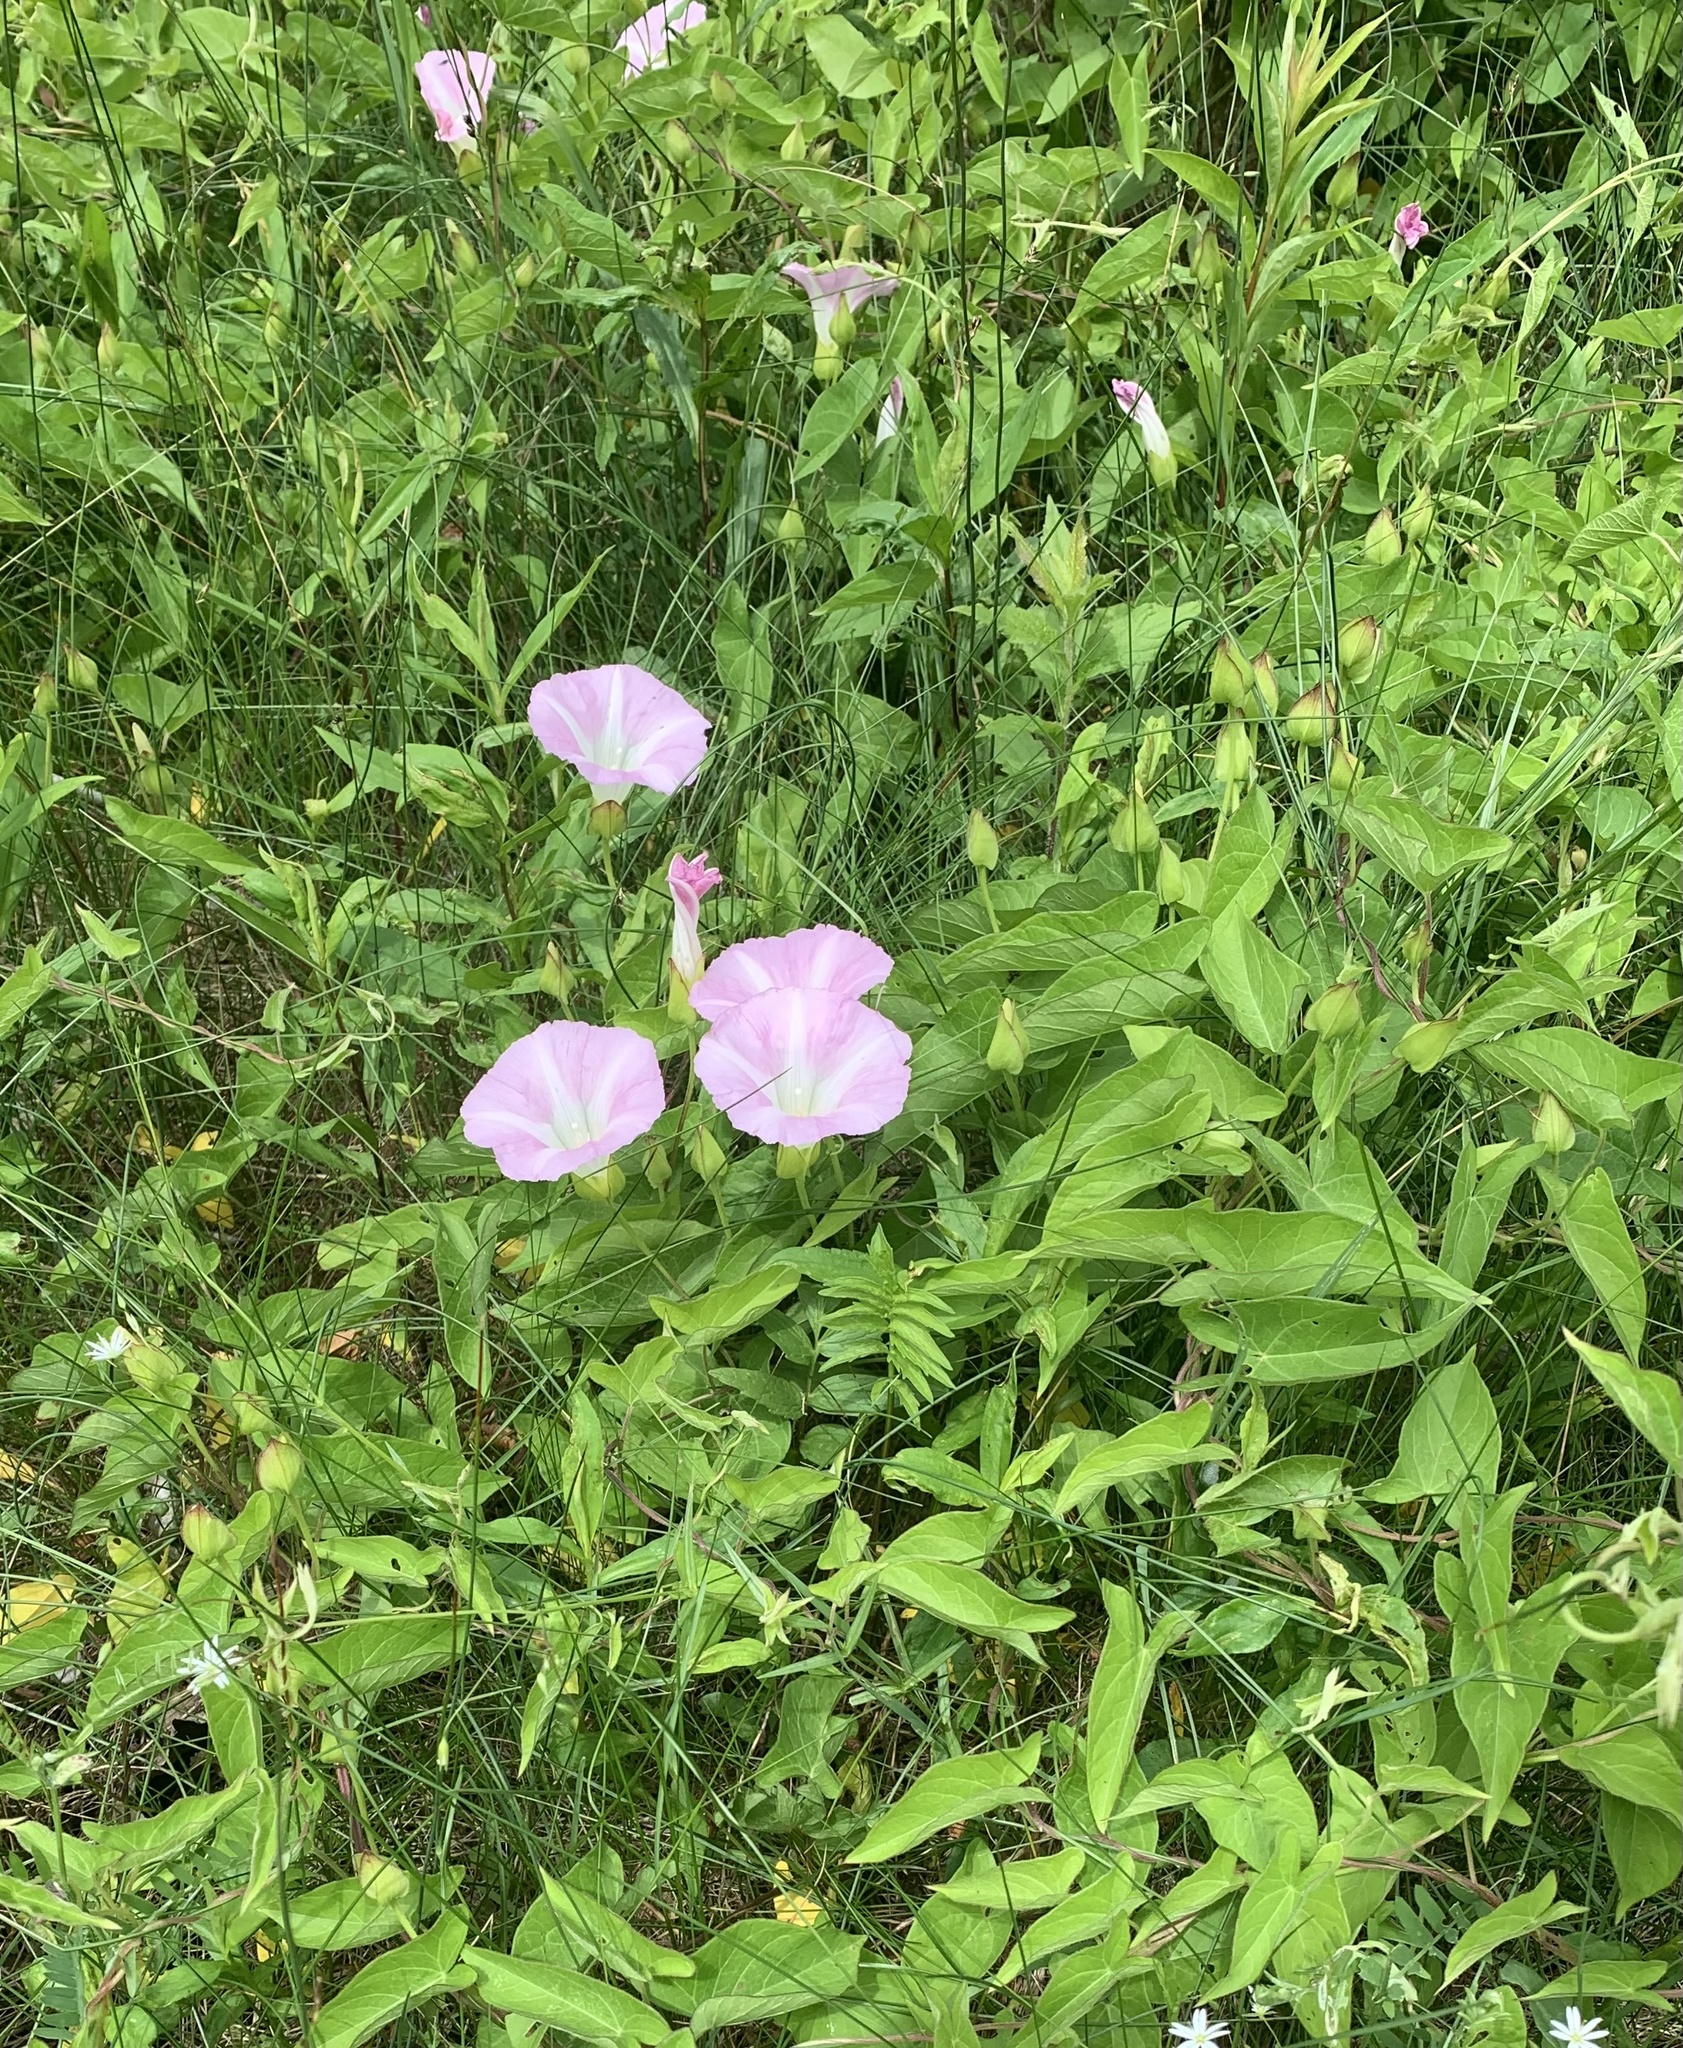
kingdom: Plantae
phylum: Tracheophyta
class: Magnoliopsida
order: Solanales
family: Convolvulaceae
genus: Calystegia
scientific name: Calystegia sepium
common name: Hedge bindweed
